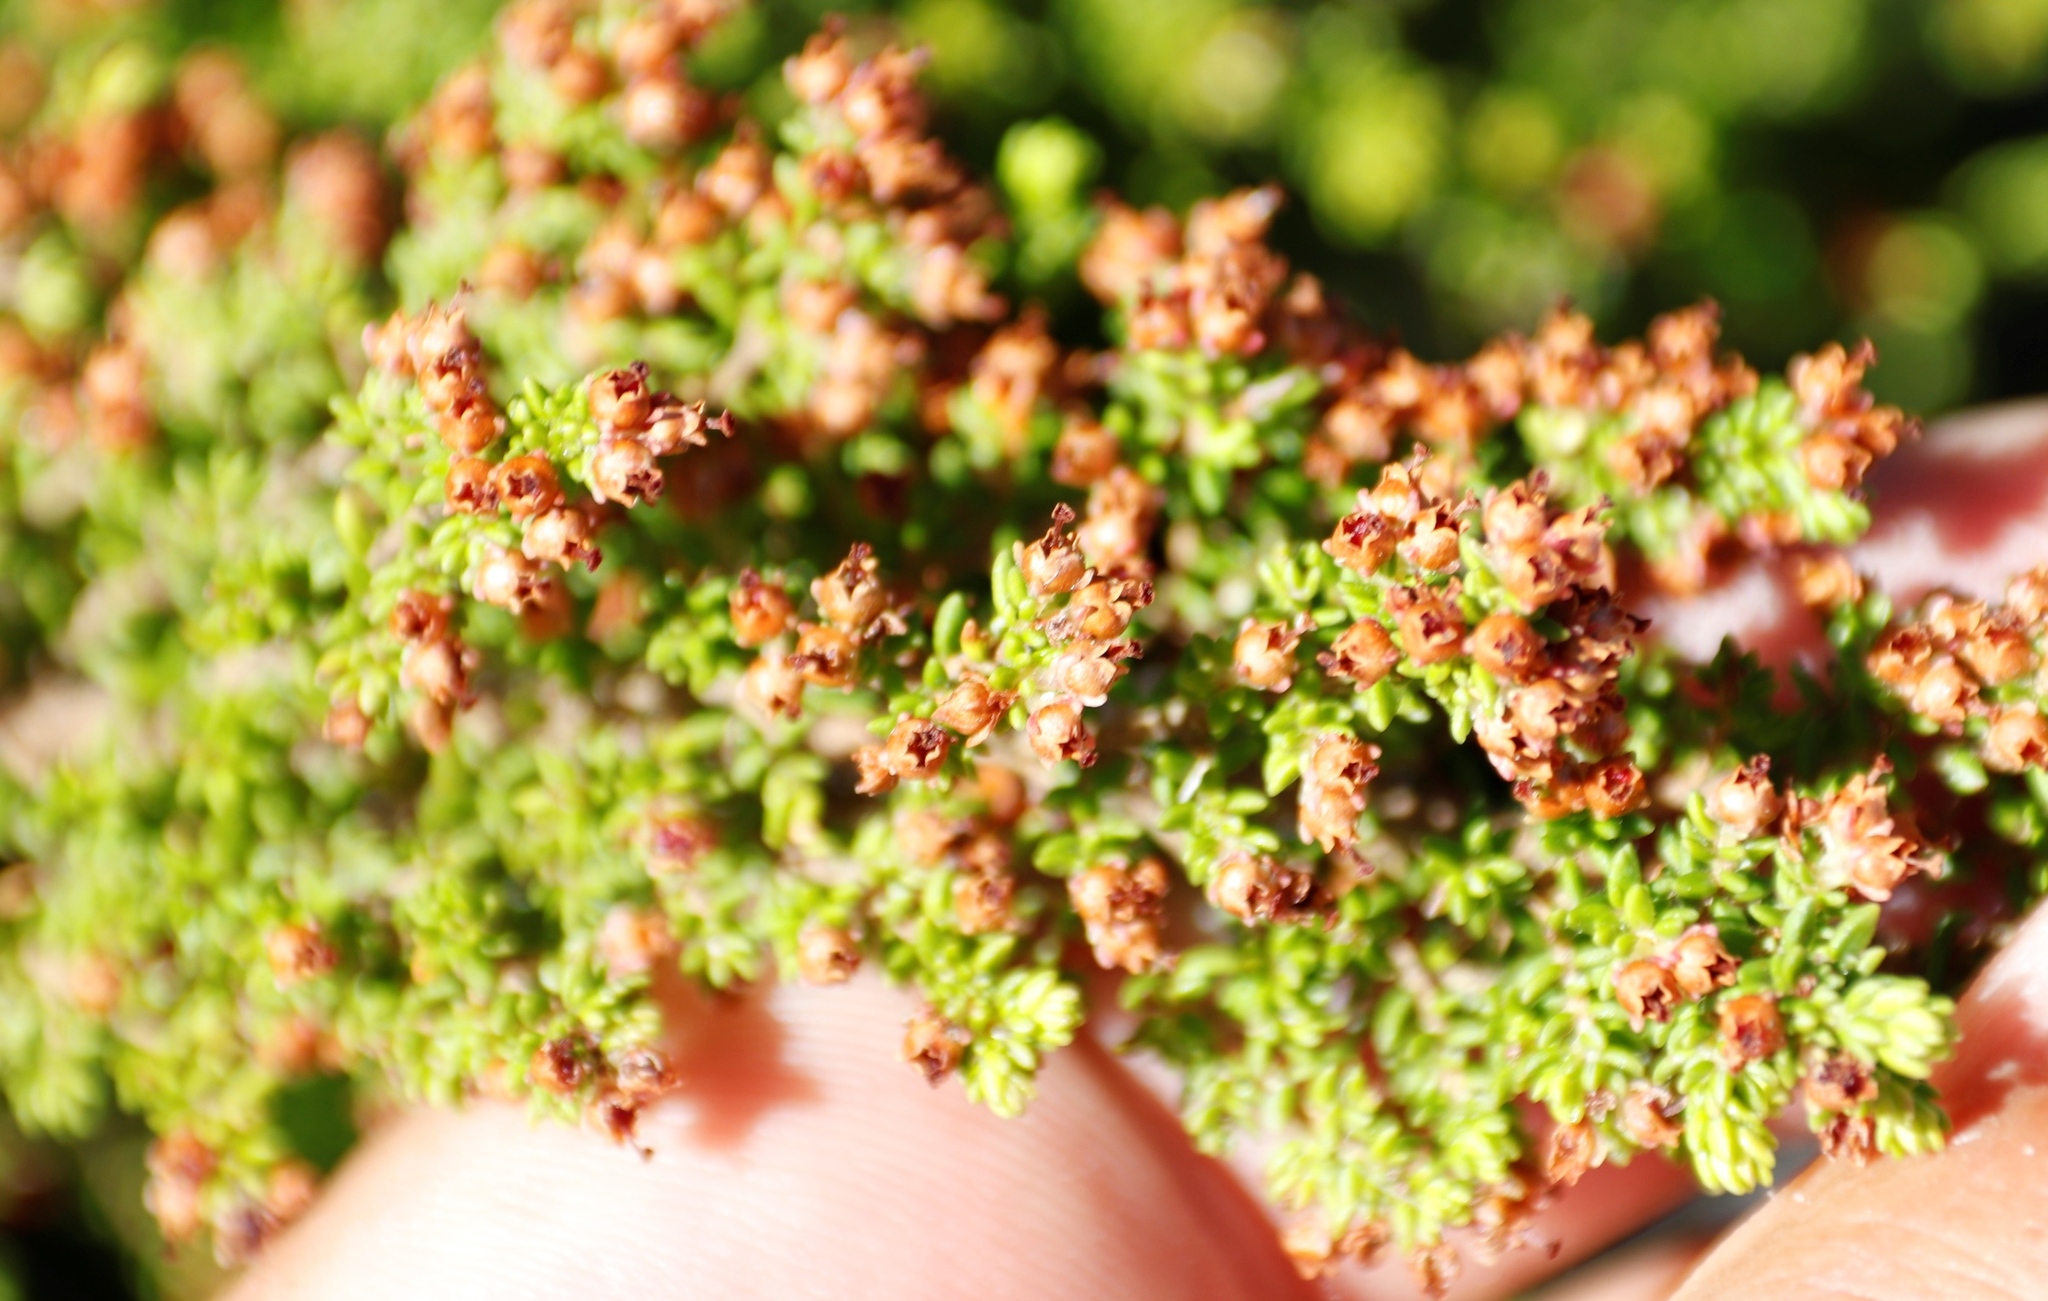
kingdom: Plantae
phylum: Tracheophyta
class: Magnoliopsida
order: Ericales
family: Ericaceae
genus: Erica
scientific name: Erica hispidula
